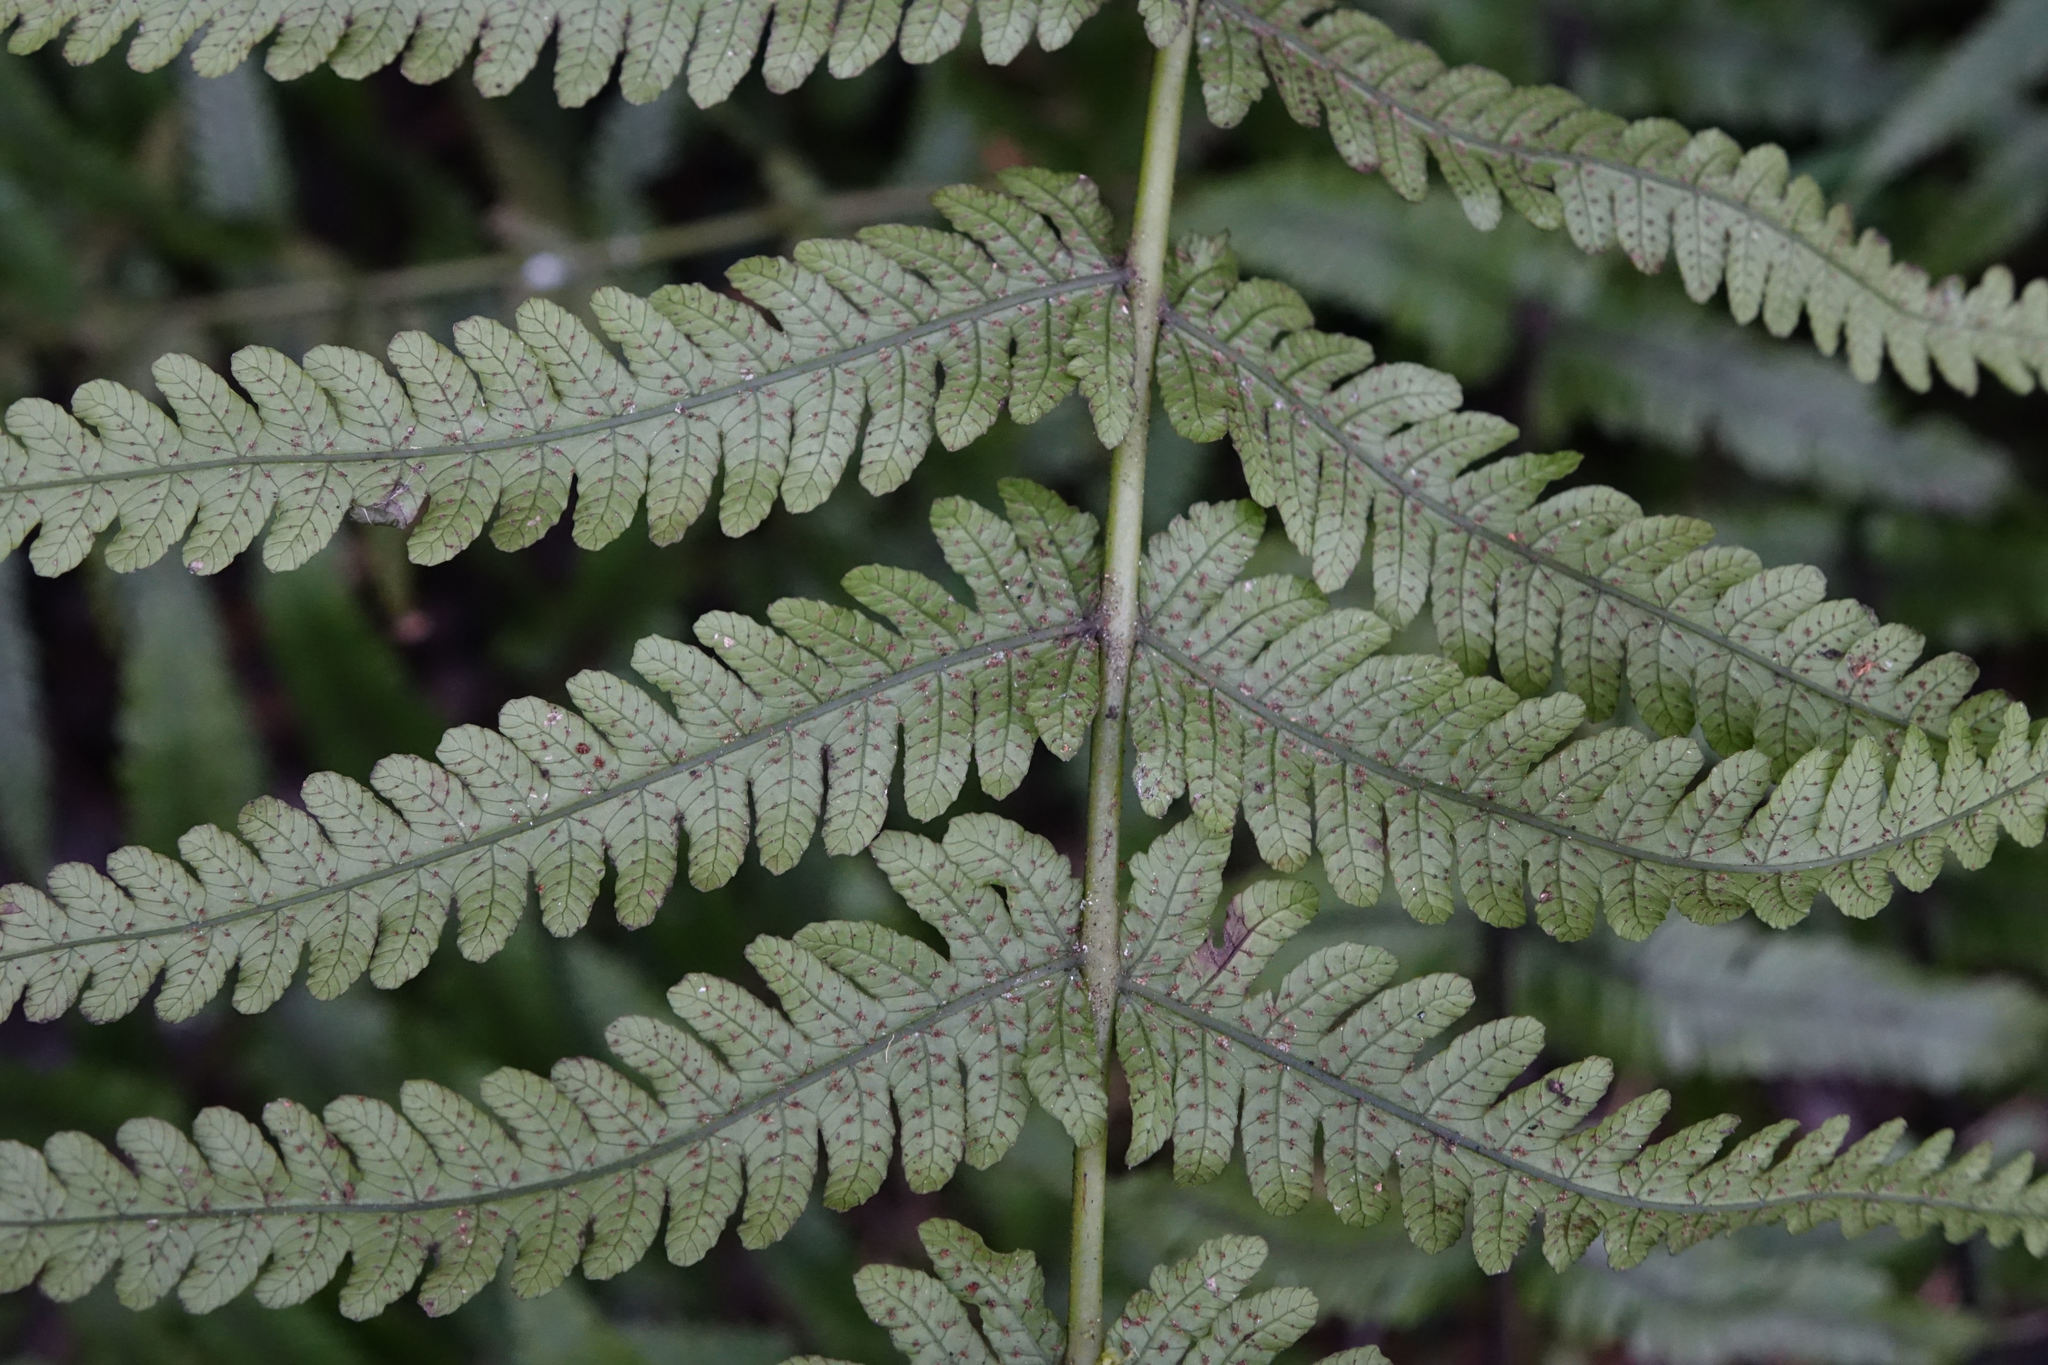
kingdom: Plantae
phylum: Tracheophyta
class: Polypodiopsida
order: Polypodiales
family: Thelypteridaceae
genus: Pakau
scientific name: Pakau pennigera
